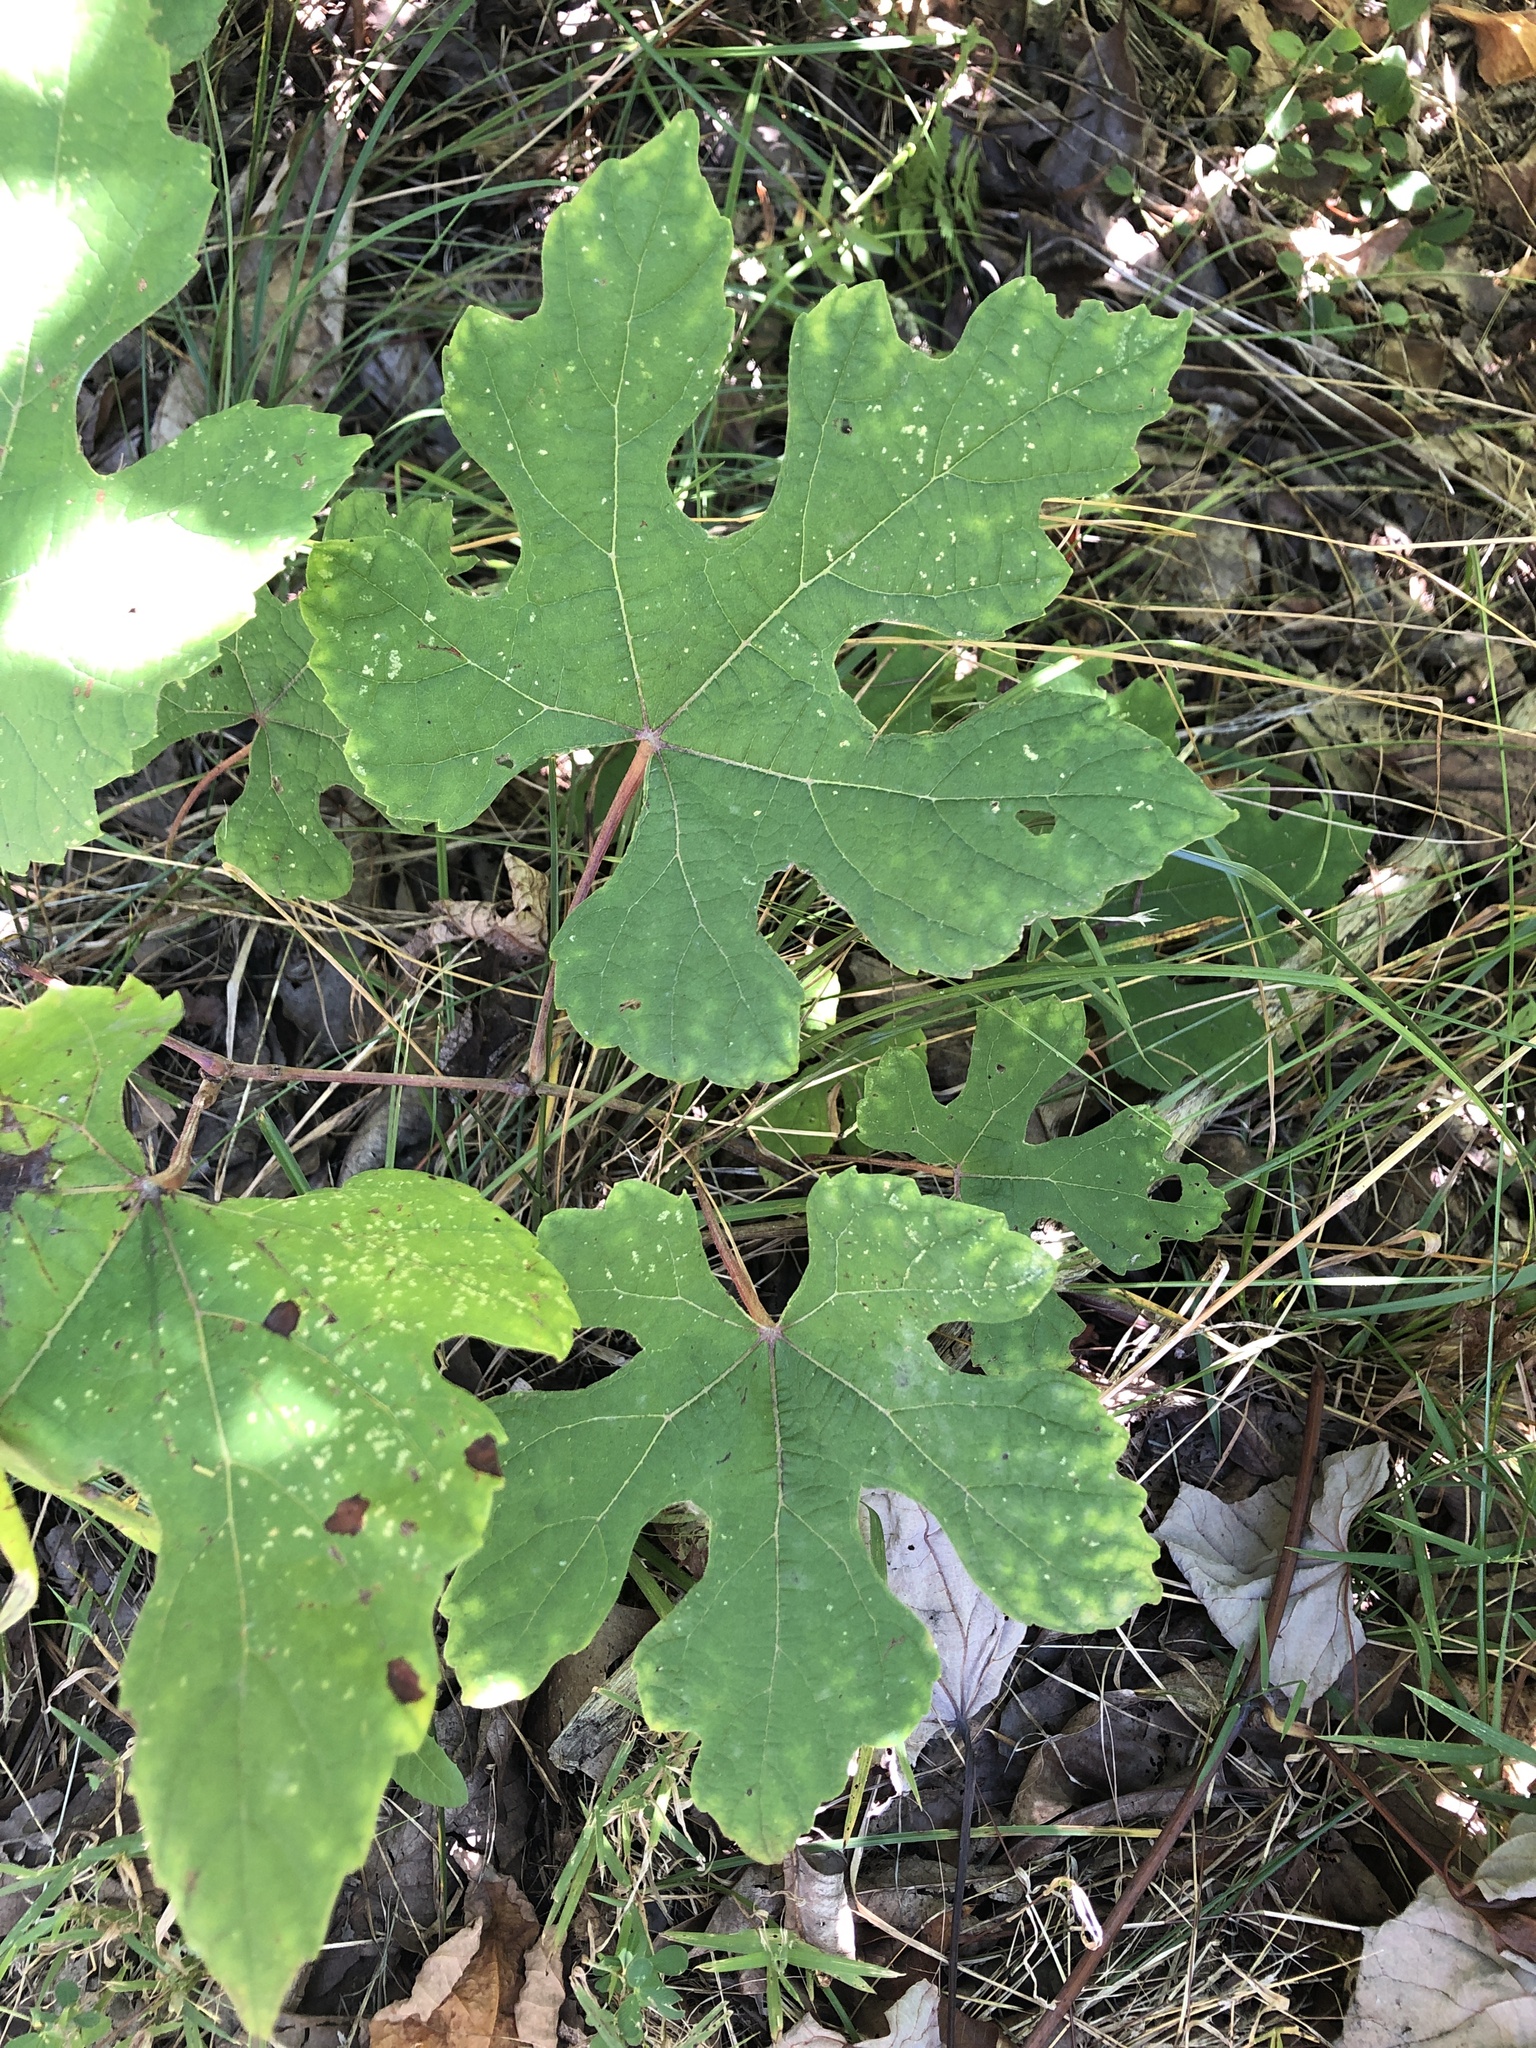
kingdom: Plantae
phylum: Tracheophyta
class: Magnoliopsida
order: Vitales
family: Vitaceae
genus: Vitis
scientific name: Vitis aestivalis
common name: Pigeon grape
